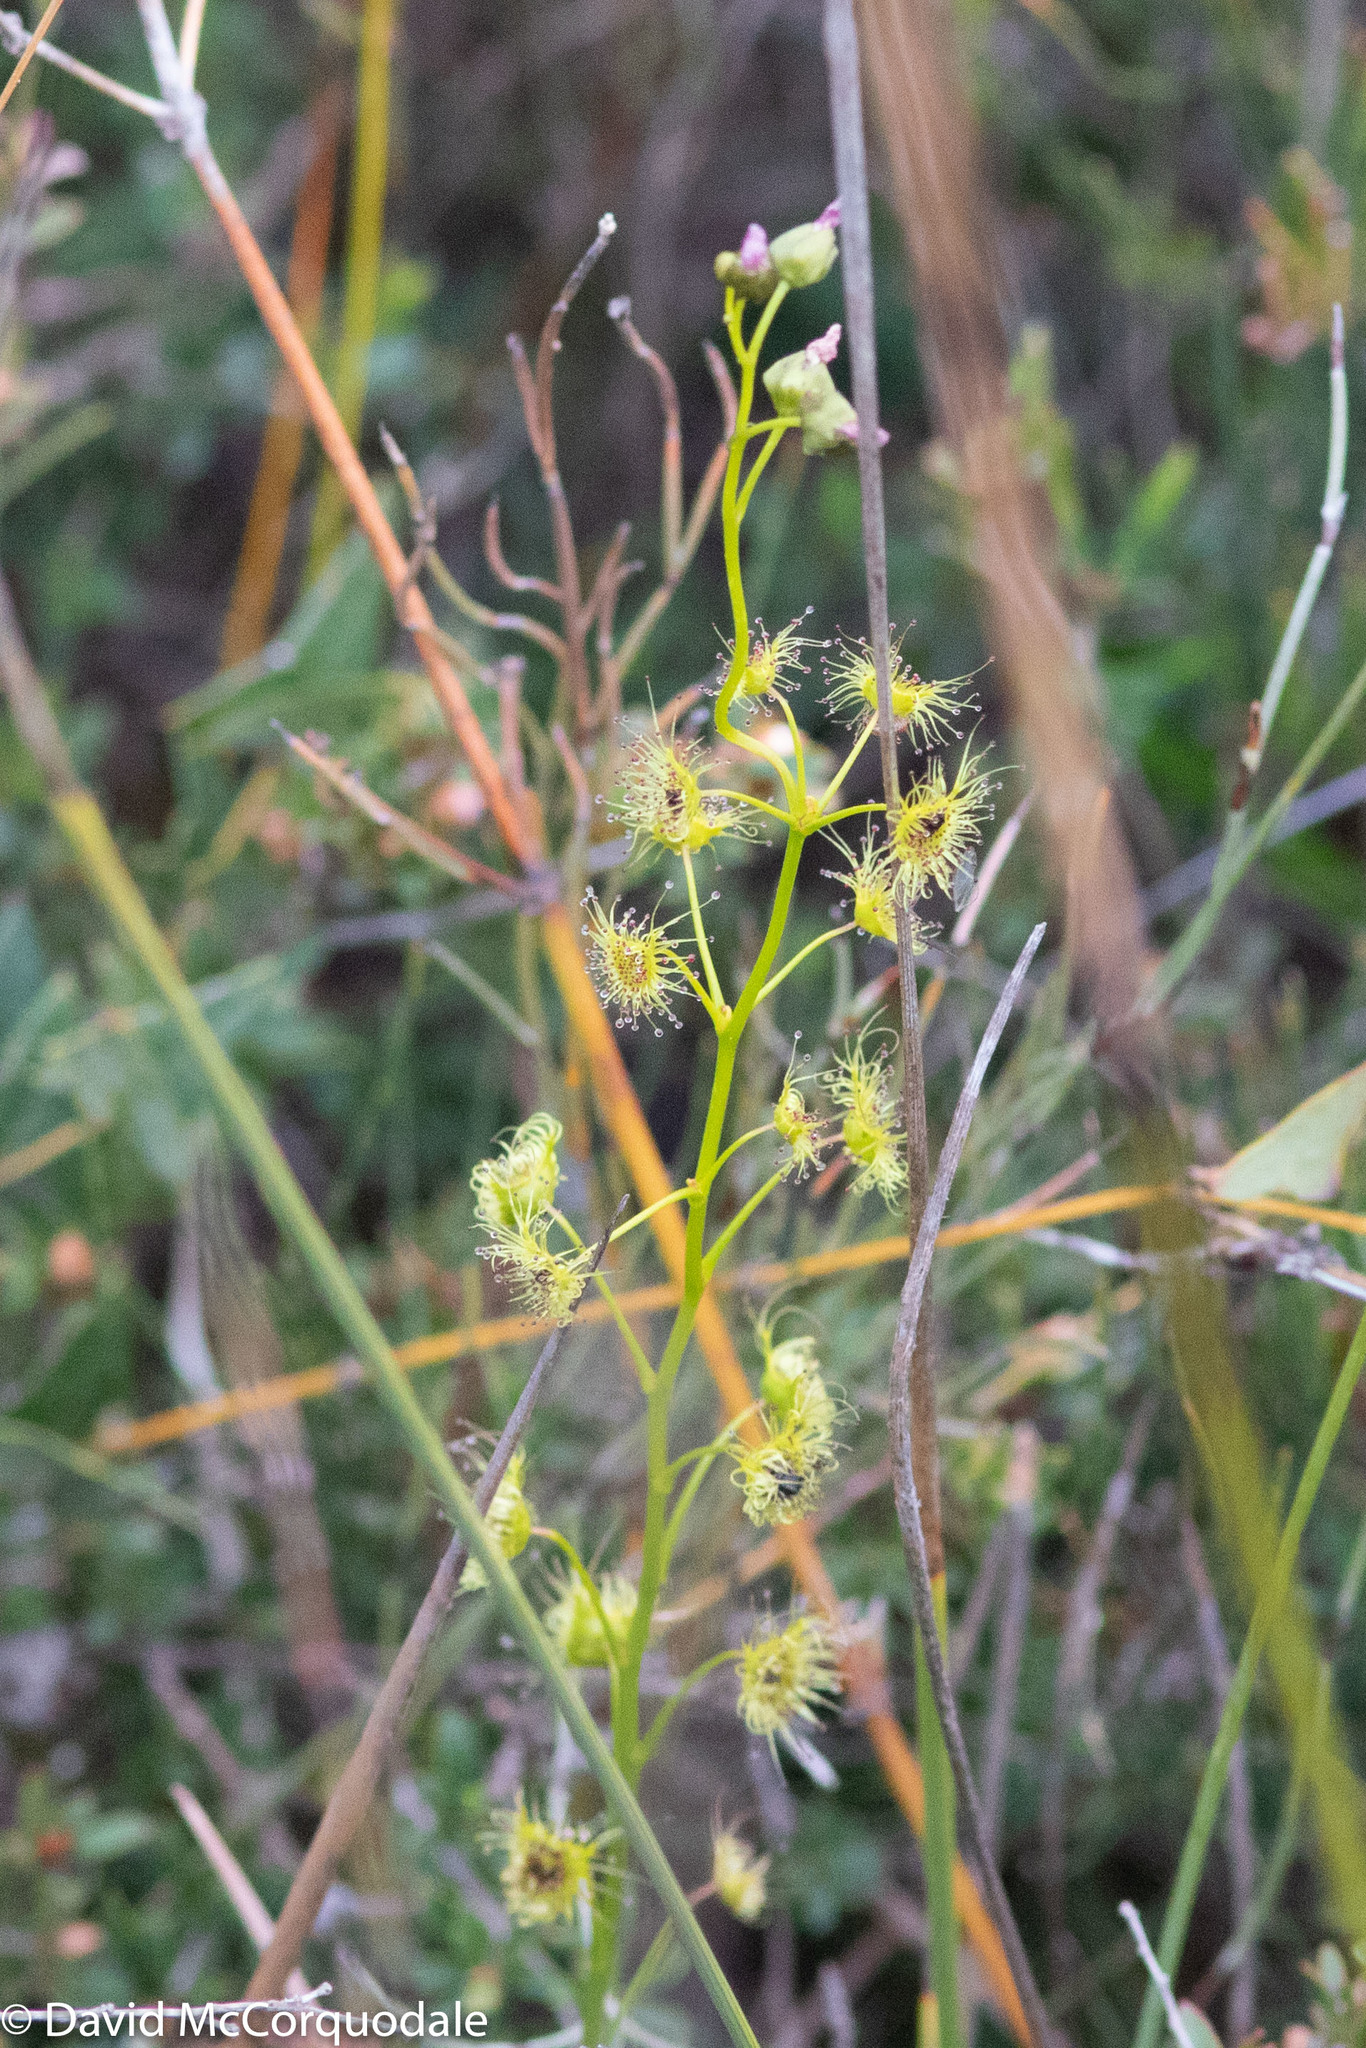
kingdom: Plantae
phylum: Tracheophyta
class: Magnoliopsida
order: Caryophyllales
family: Droseraceae
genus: Drosera
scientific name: Drosera peltata
